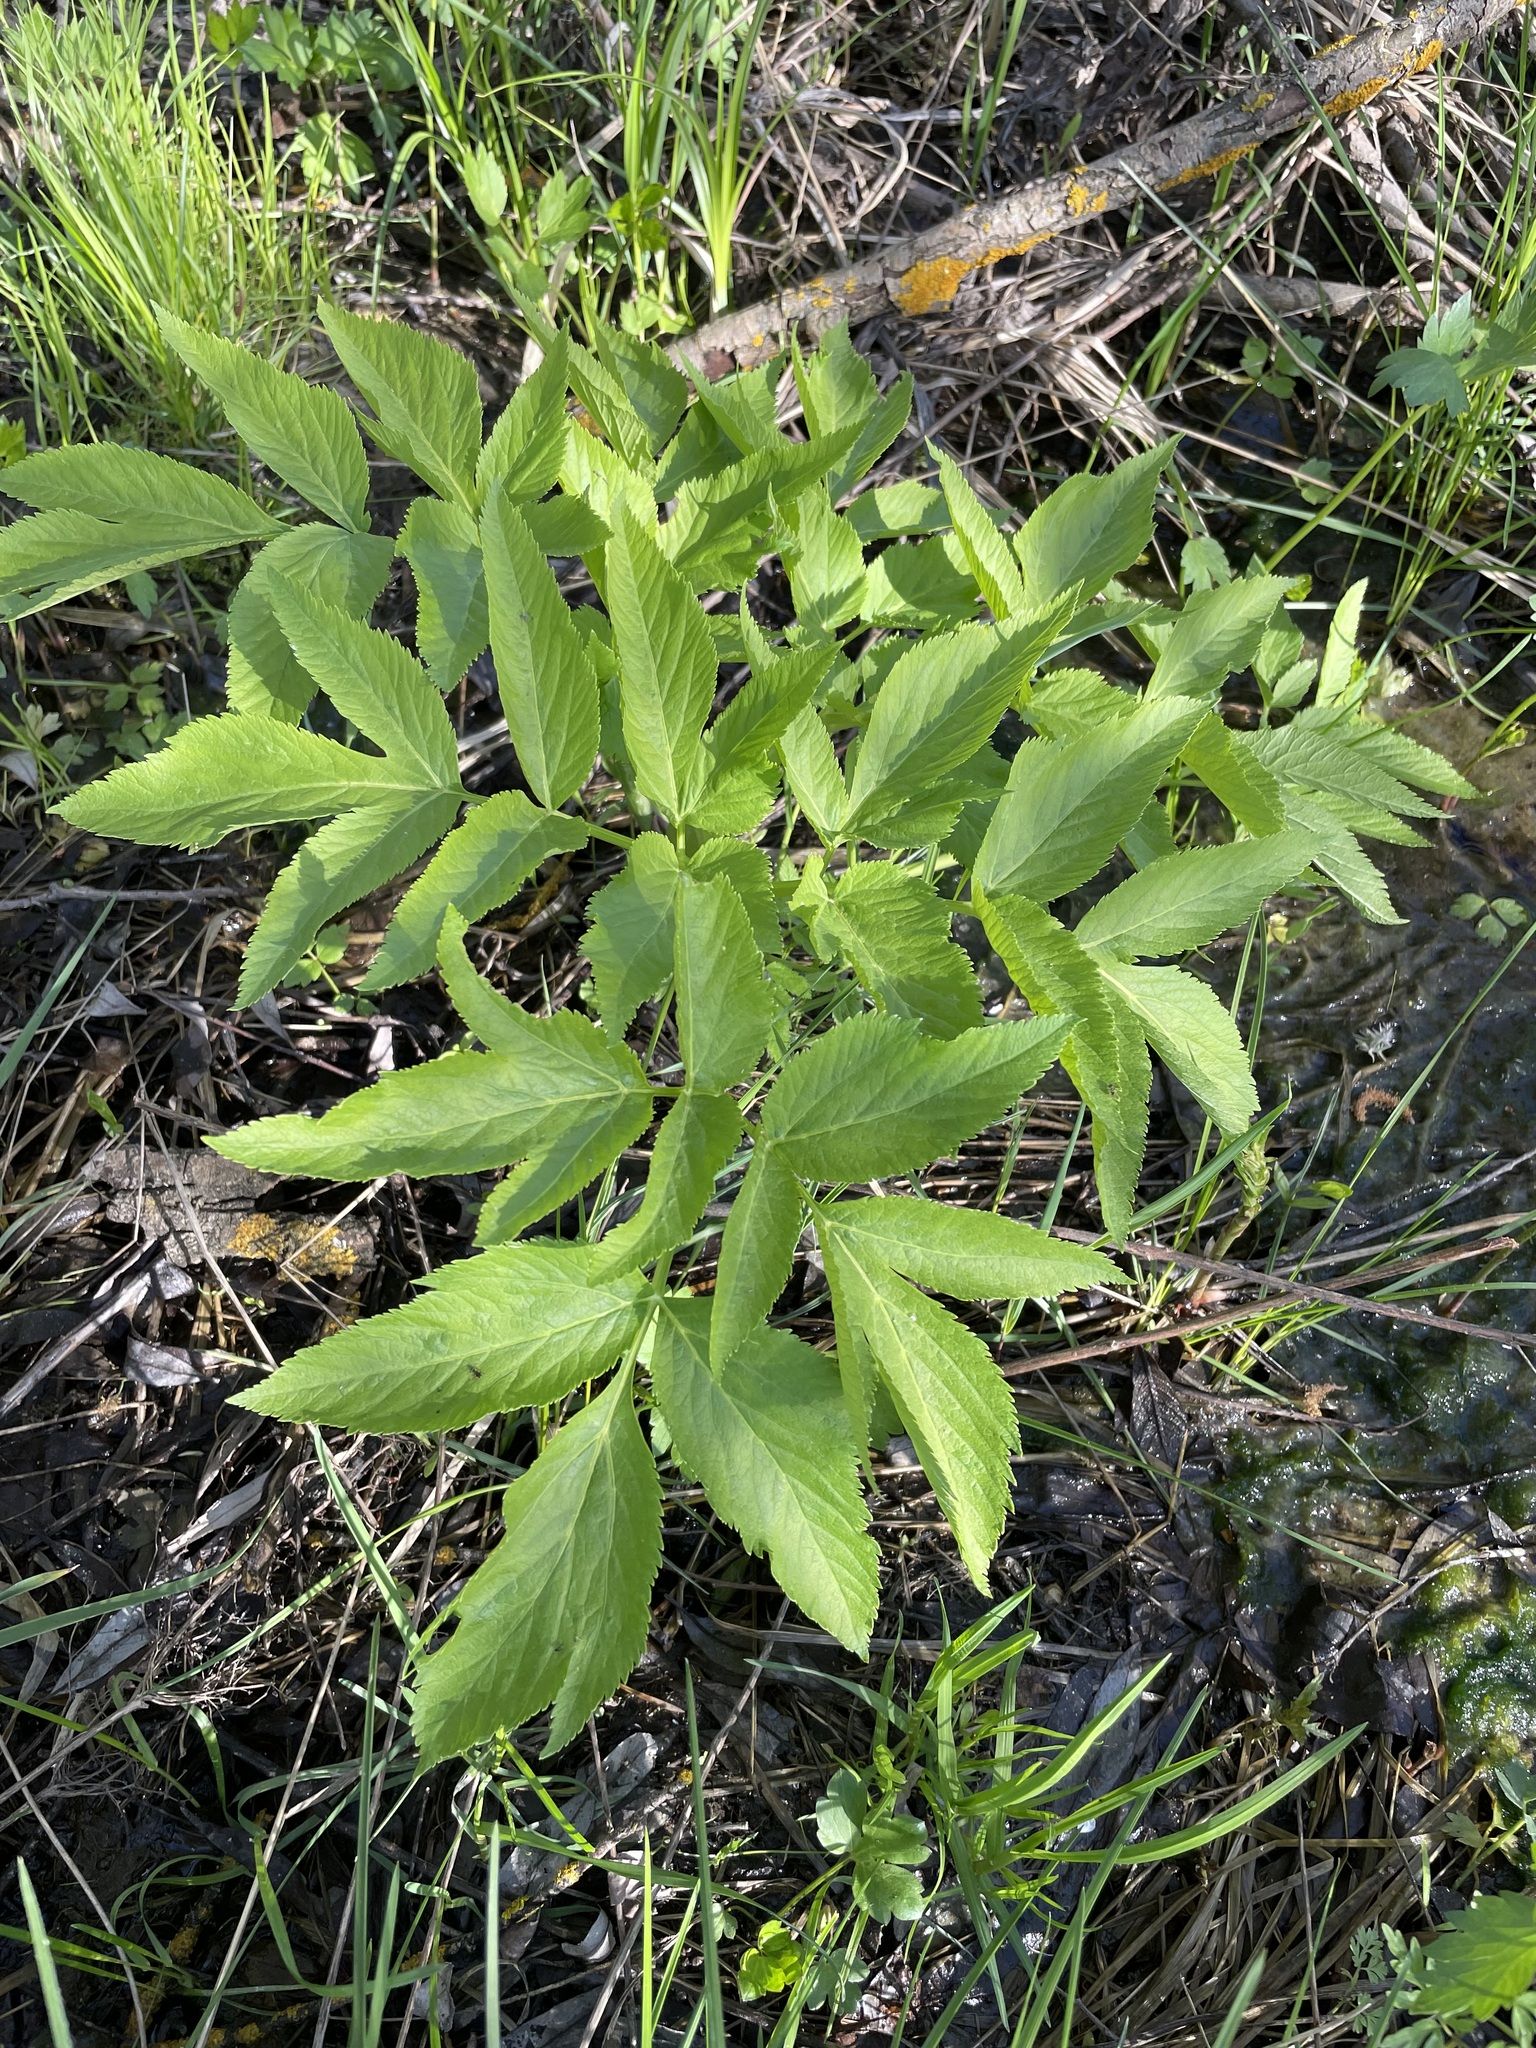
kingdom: Plantae
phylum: Tracheophyta
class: Magnoliopsida
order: Apiales
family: Apiaceae
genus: Angelica
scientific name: Angelica archangelica
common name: Garden angelica
